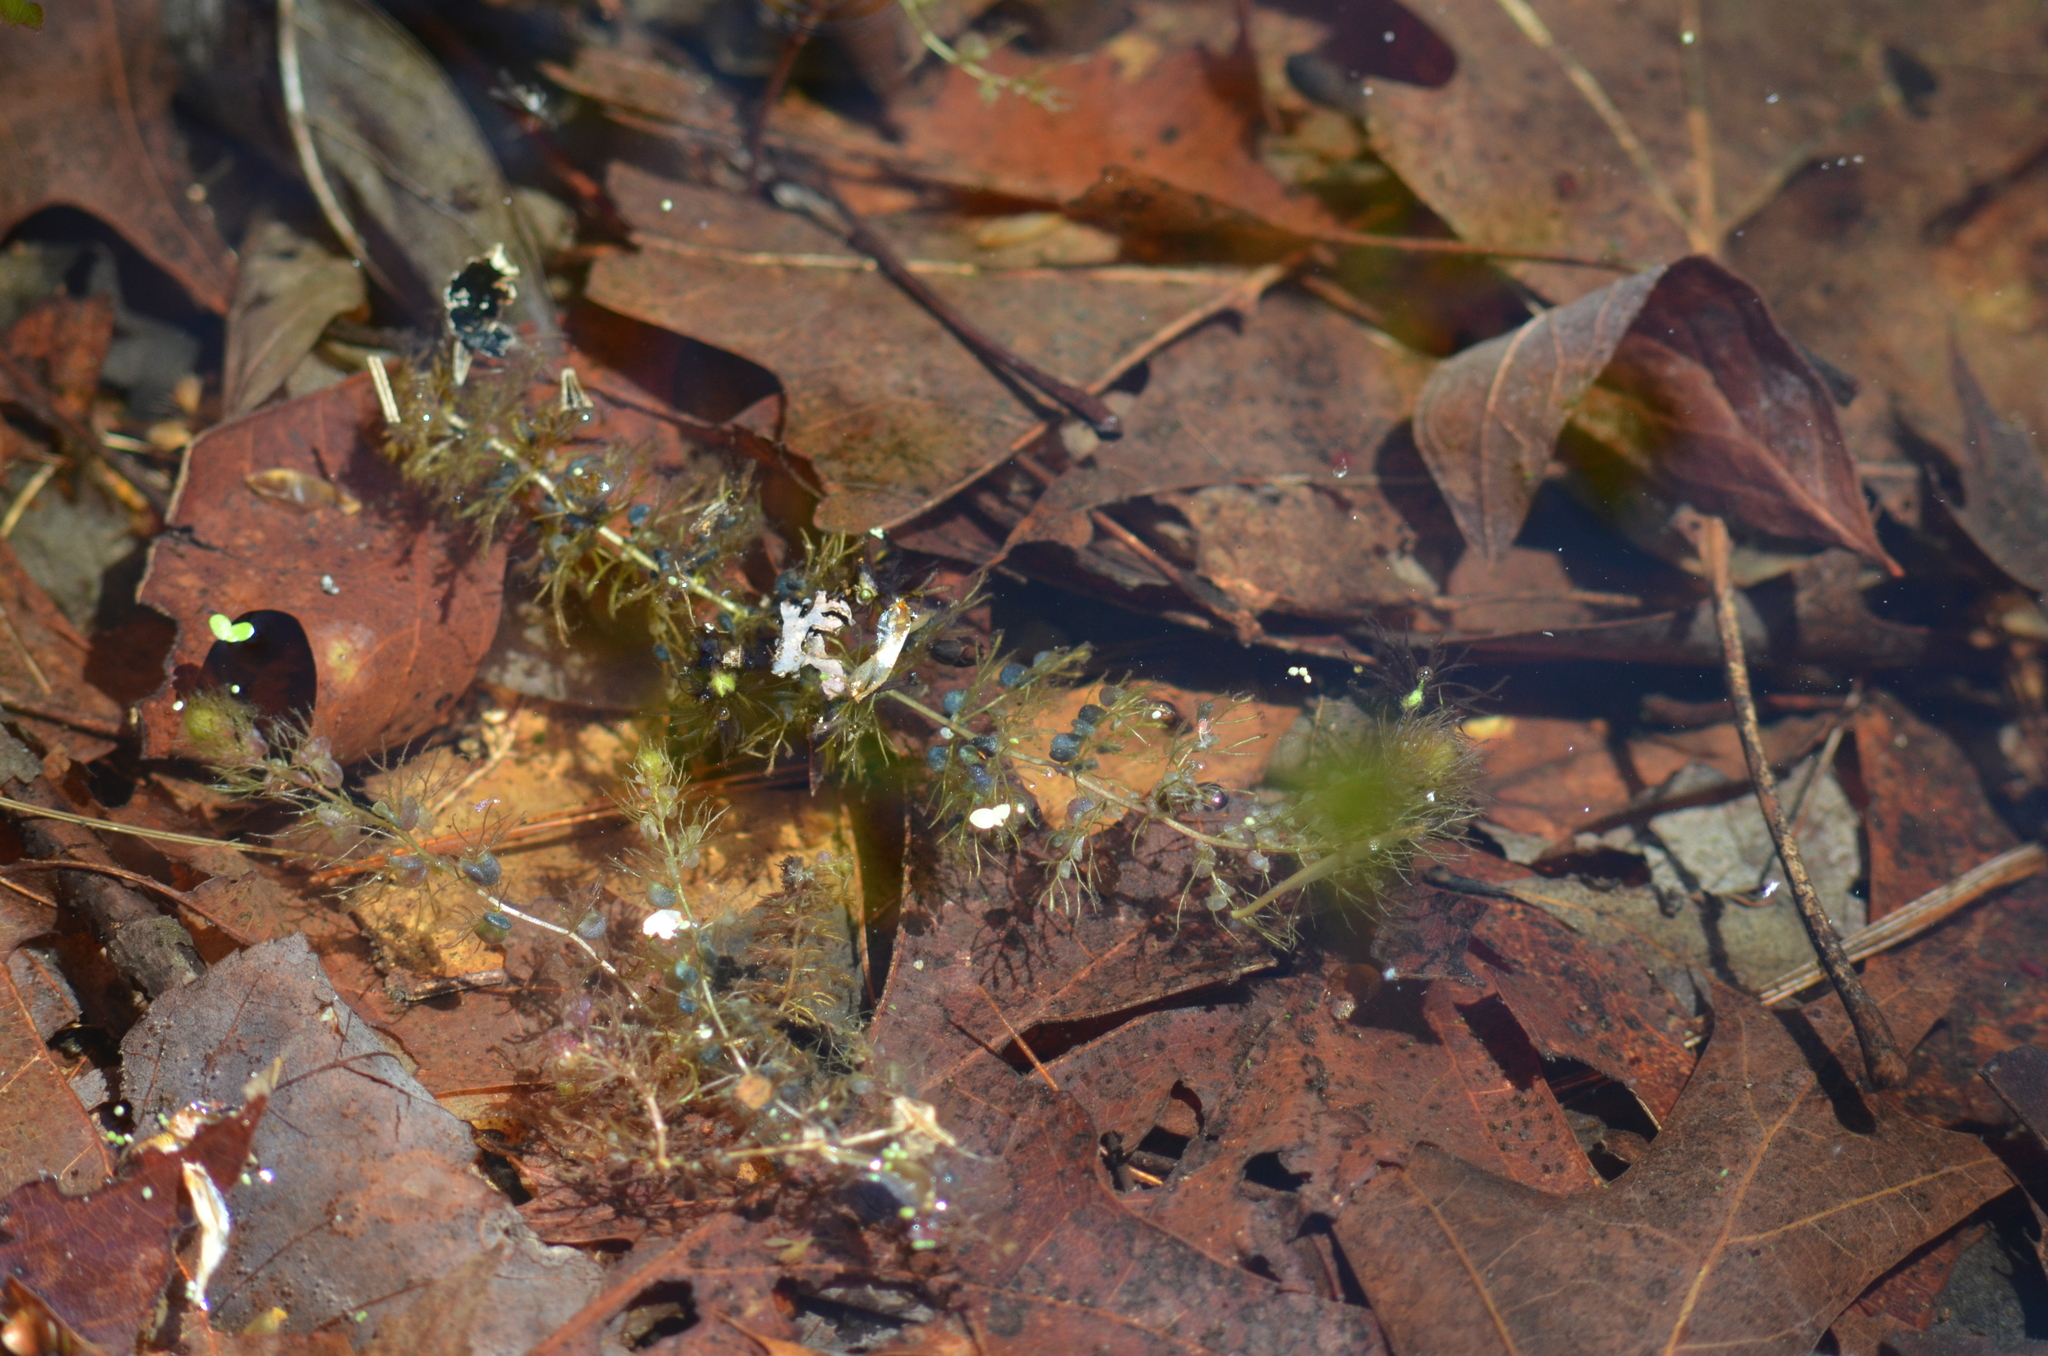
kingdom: Plantae
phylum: Tracheophyta
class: Magnoliopsida
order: Lamiales
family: Lentibulariaceae
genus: Utricularia
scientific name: Utricularia macrorhiza
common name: Common bladderwort
